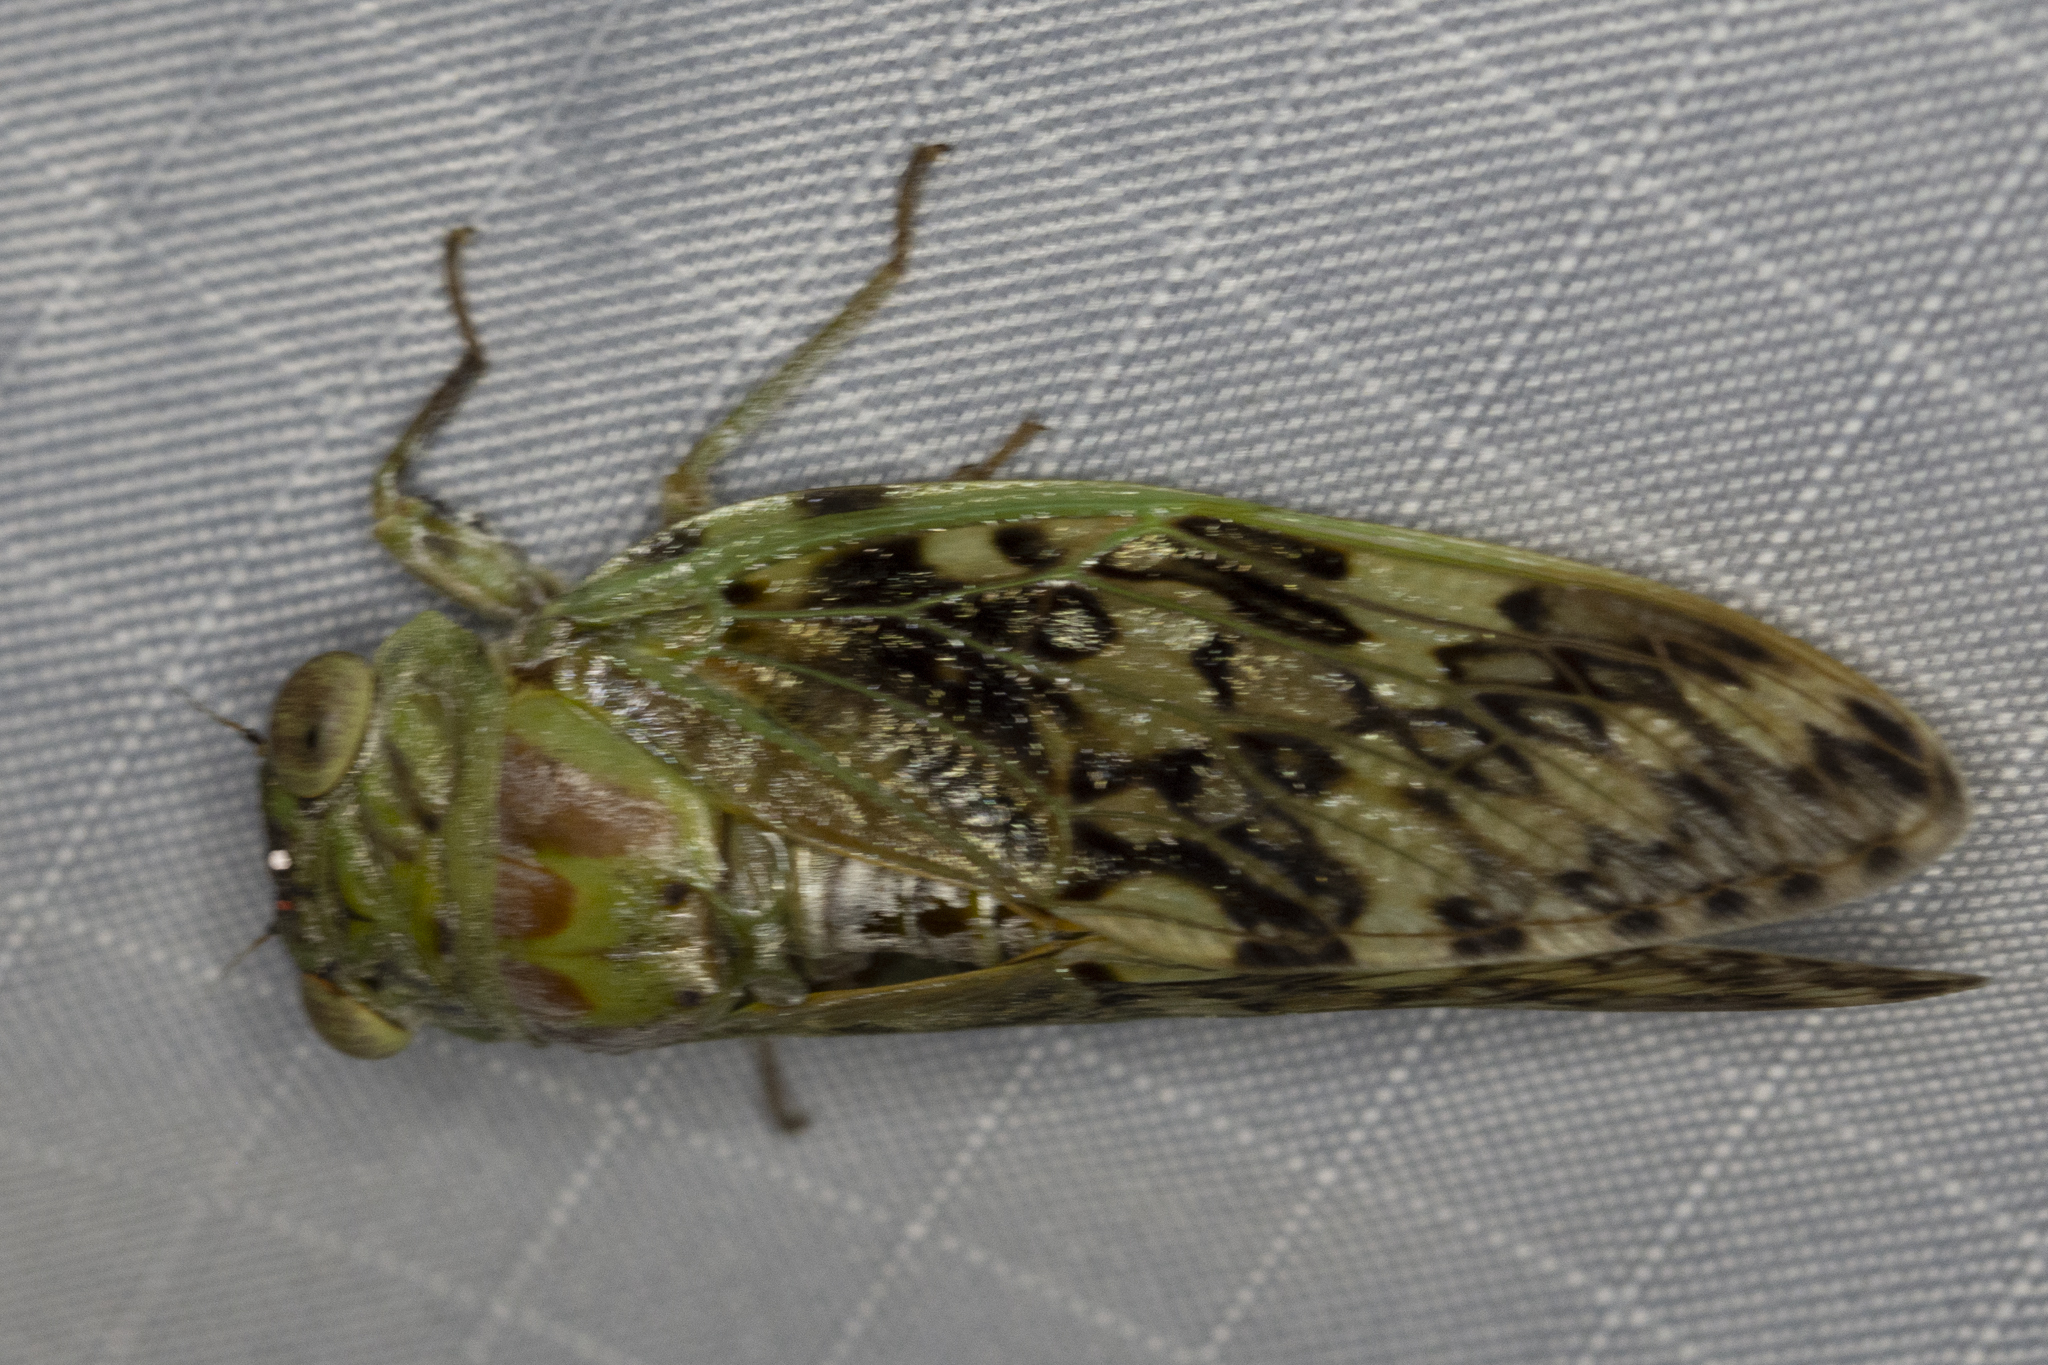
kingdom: Animalia
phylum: Arthropoda
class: Insecta
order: Hemiptera
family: Cicadidae
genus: Hamza
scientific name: Hamza ciliaris
